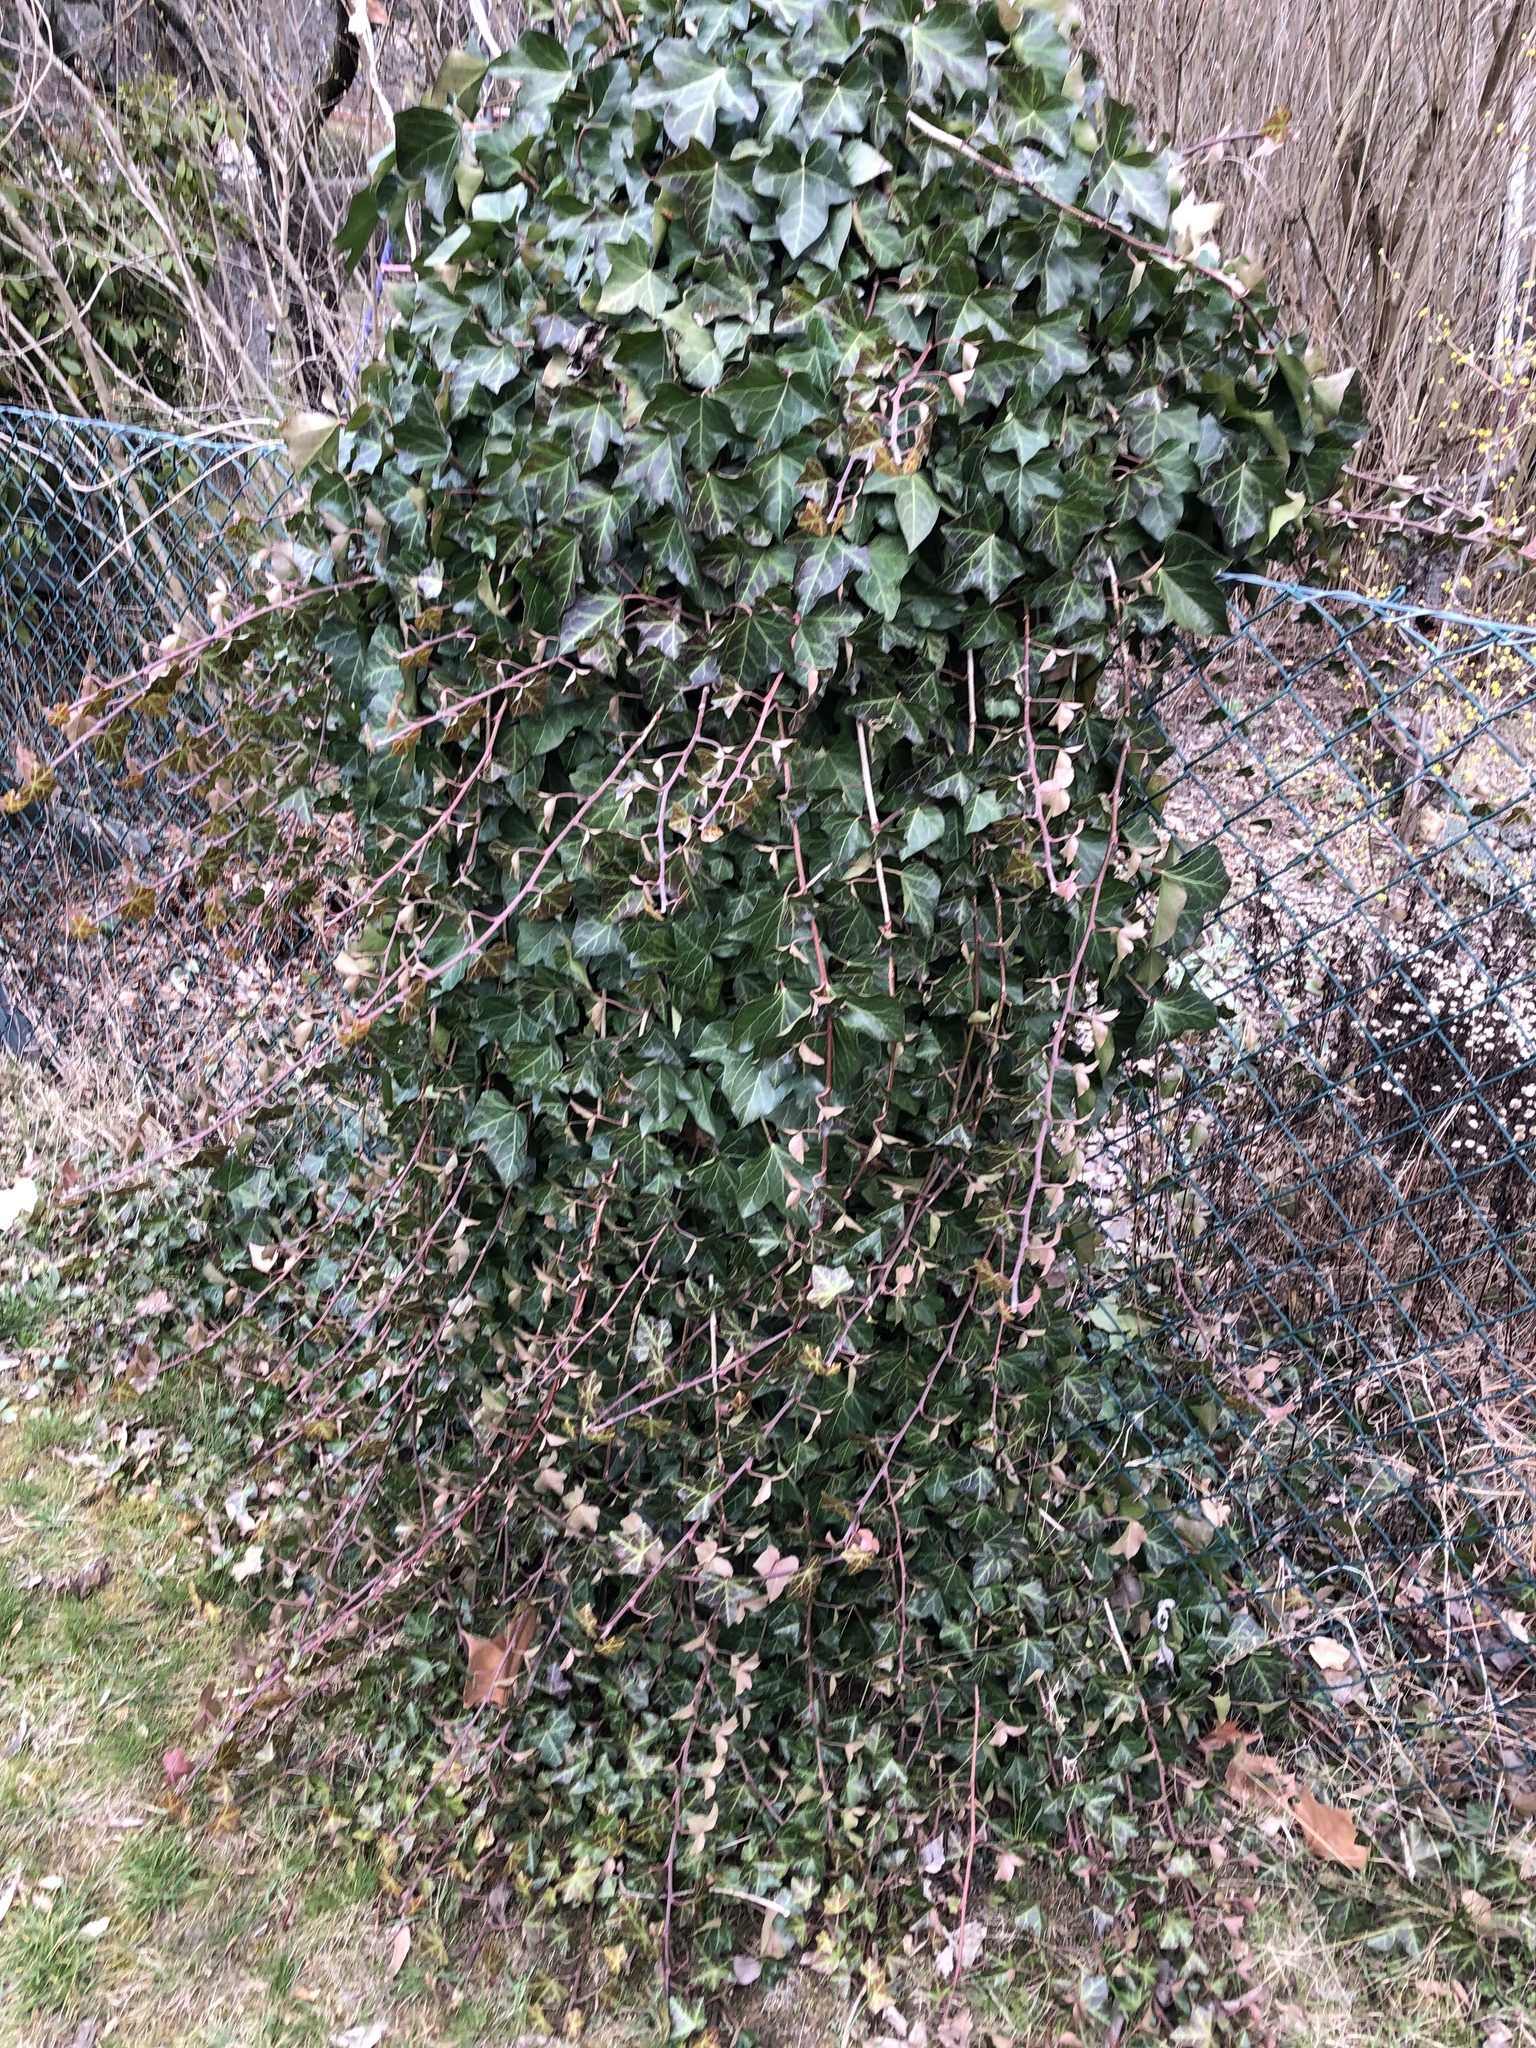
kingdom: Plantae
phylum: Tracheophyta
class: Magnoliopsida
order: Apiales
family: Araliaceae
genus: Hedera
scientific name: Hedera helix
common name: Ivy
